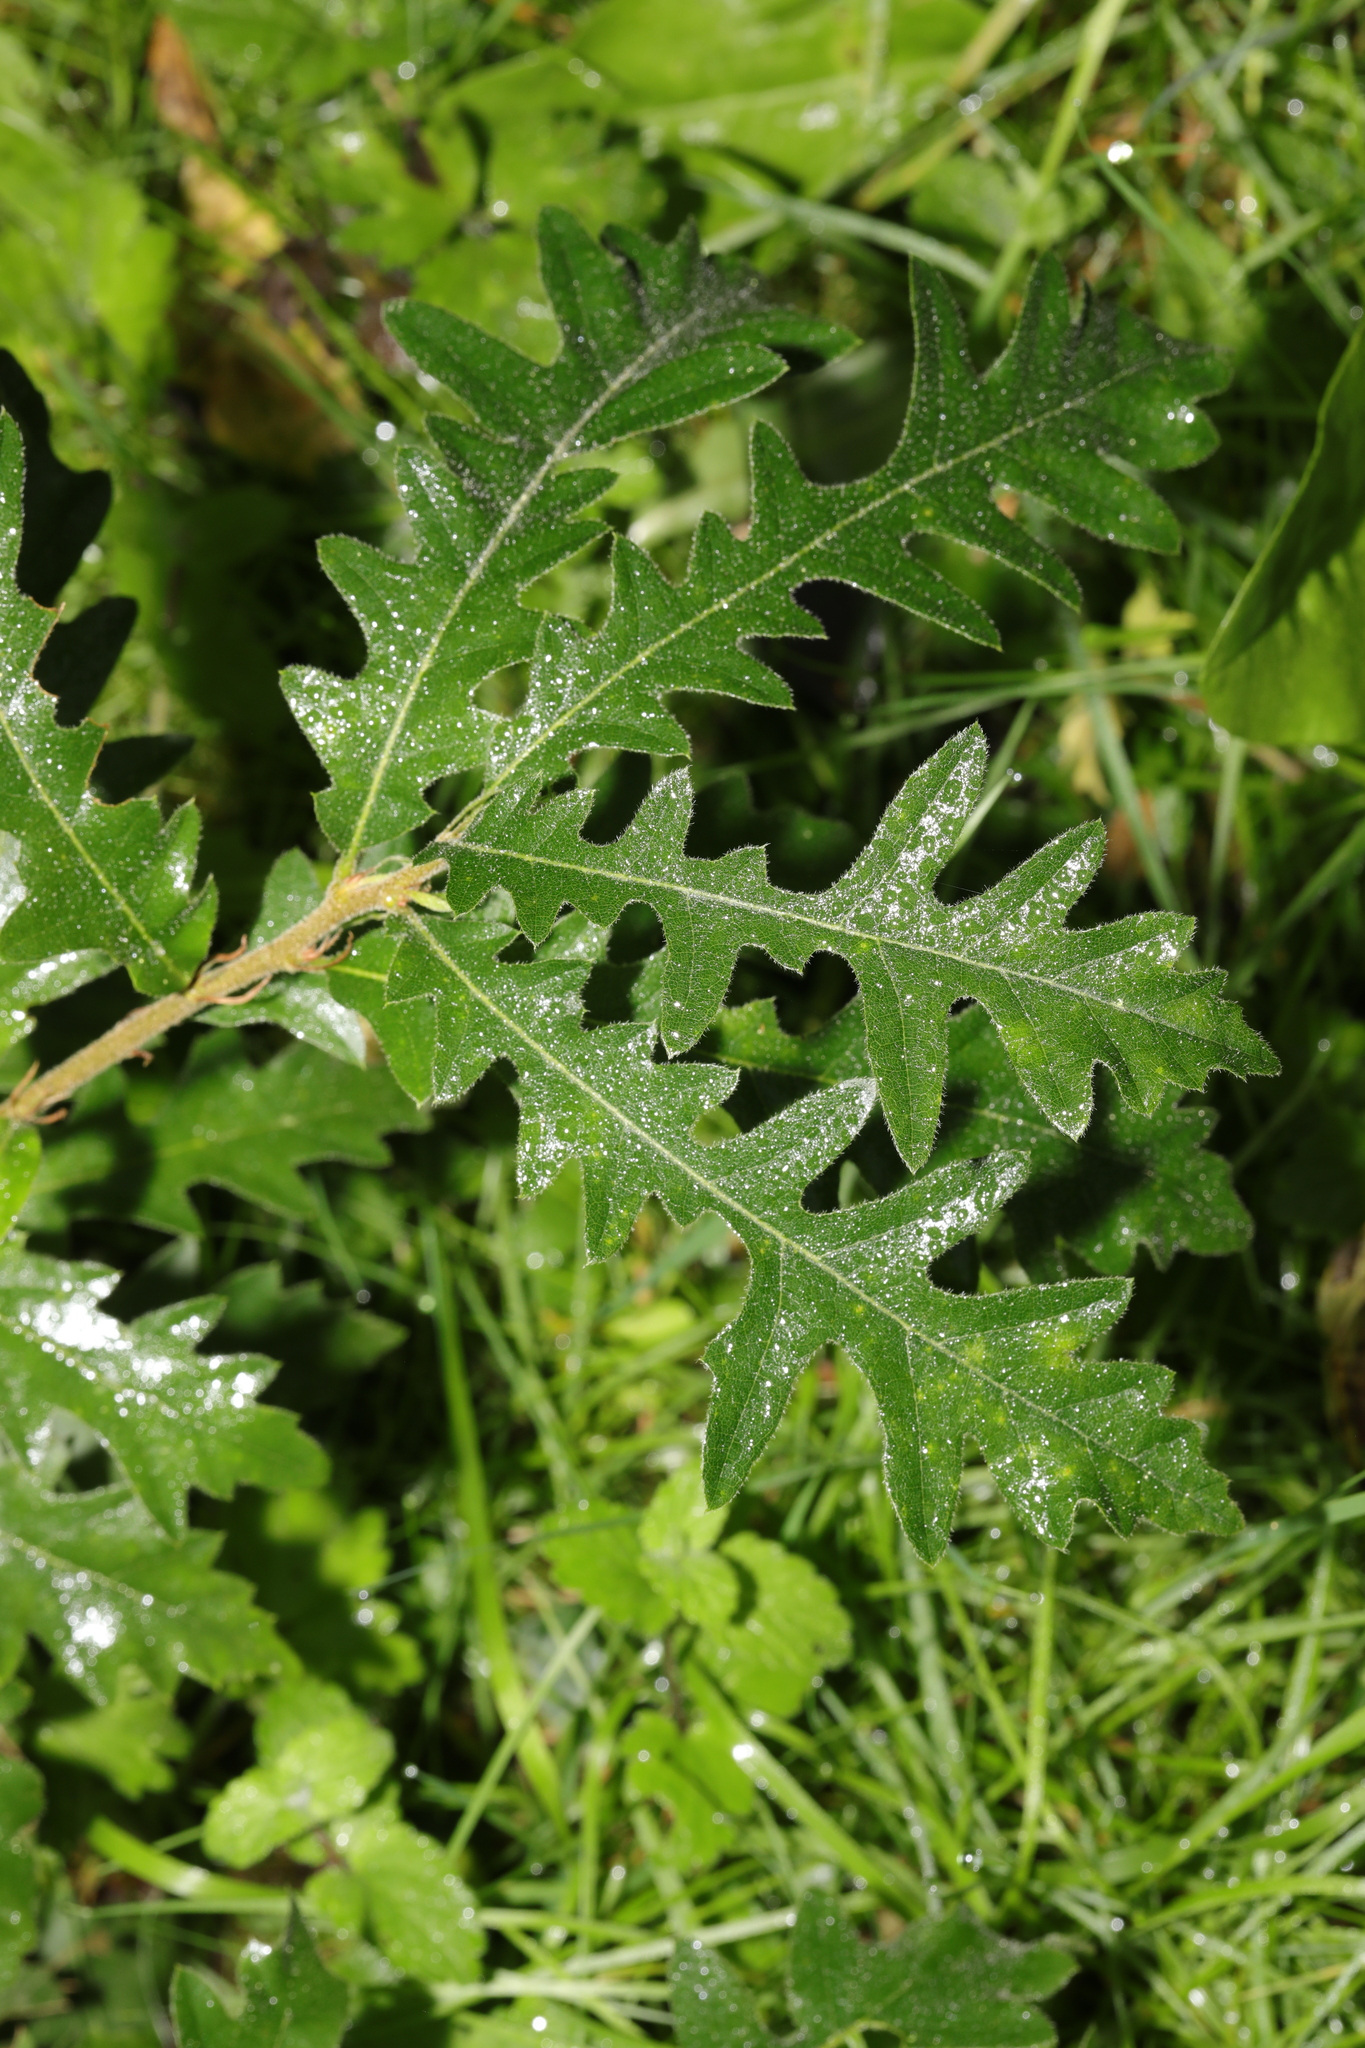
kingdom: Plantae
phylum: Tracheophyta
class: Magnoliopsida
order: Fagales
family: Fagaceae
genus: Quercus
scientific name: Quercus cerris
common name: Turkey oak
